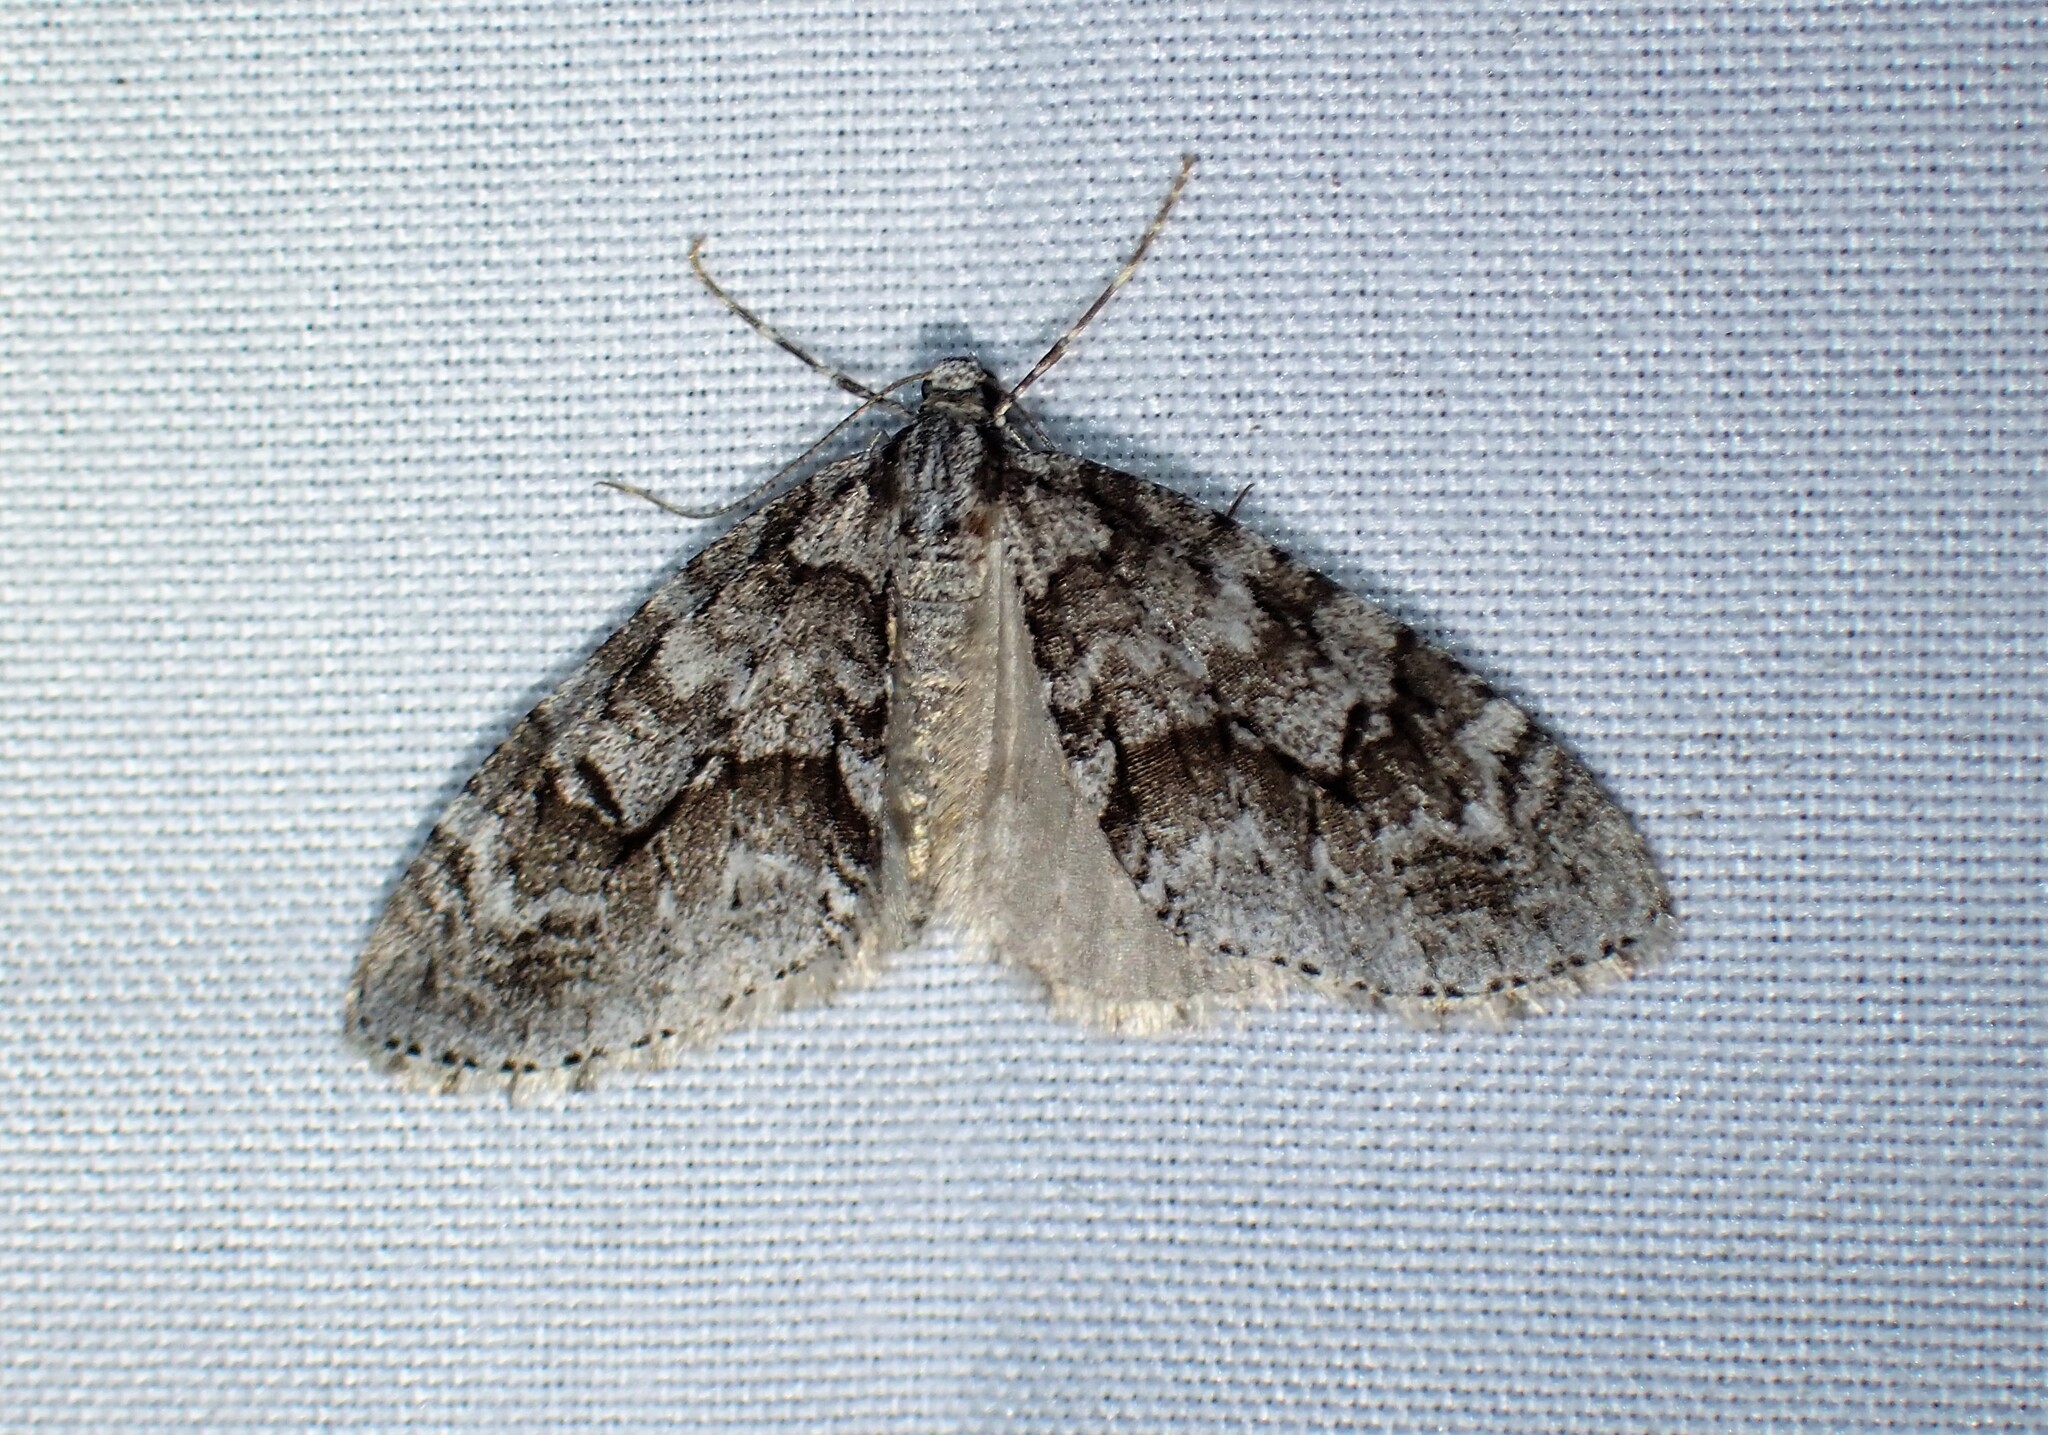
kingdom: Animalia
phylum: Arthropoda
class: Insecta
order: Lepidoptera
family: Geometridae
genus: Cladara
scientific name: Cladara limitaria
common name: Mottled gray carpet
